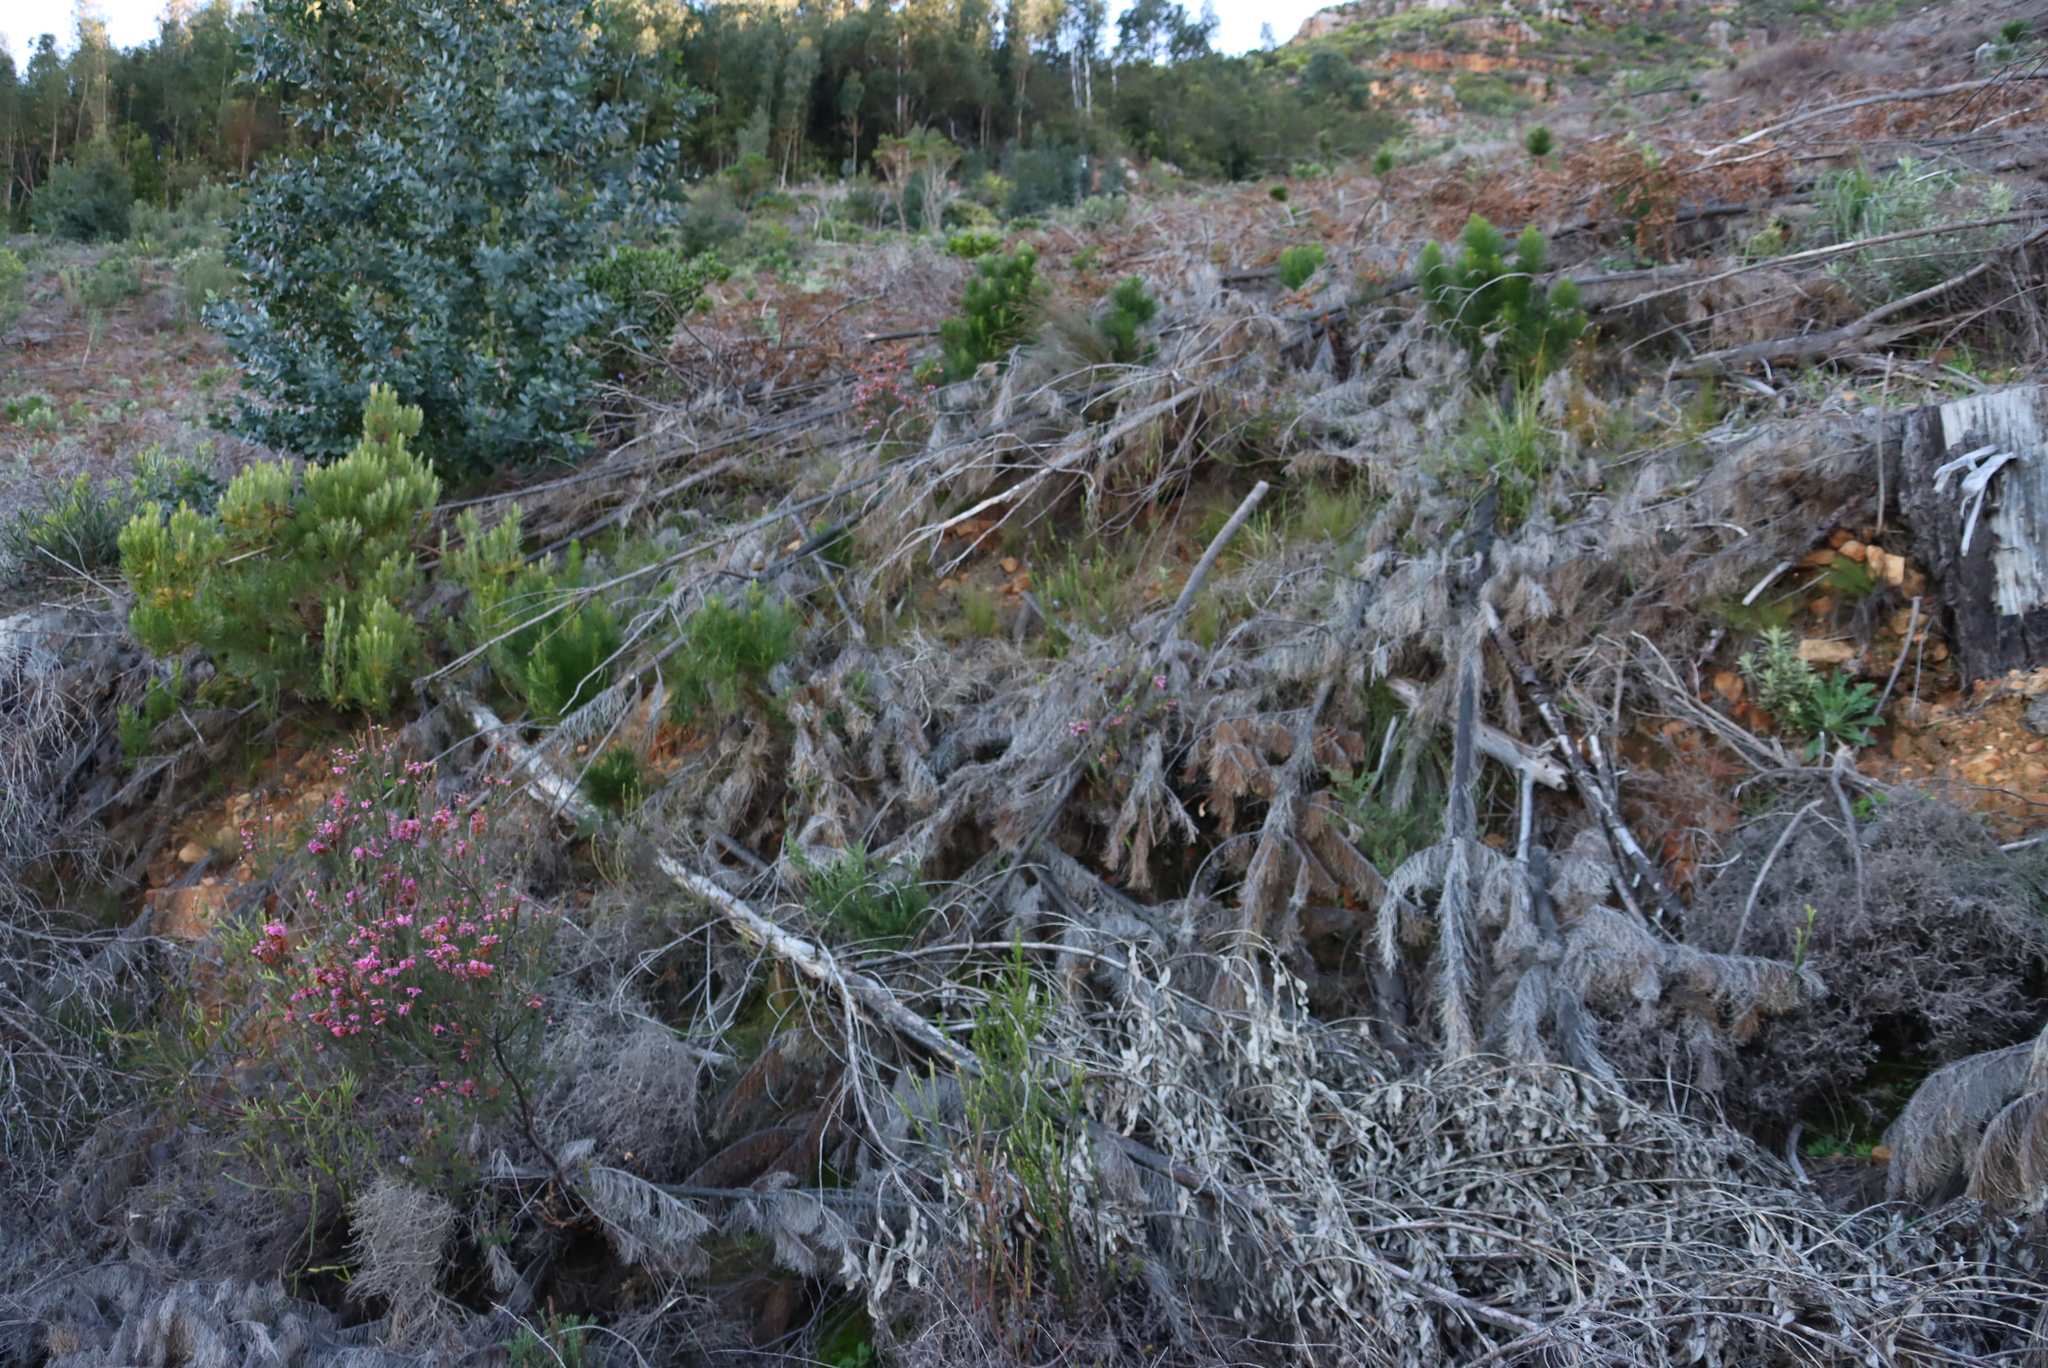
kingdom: Plantae
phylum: Tracheophyta
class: Pinopsida
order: Pinales
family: Pinaceae
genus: Pinus
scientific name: Pinus radiata
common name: Monterey pine
